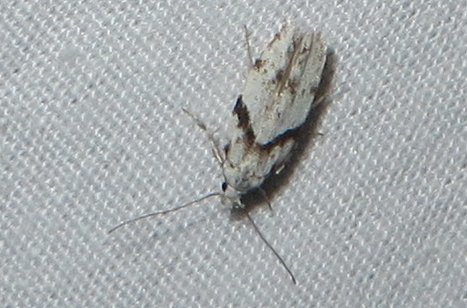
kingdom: Animalia
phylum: Arthropoda
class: Insecta
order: Lepidoptera
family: Gelechiidae
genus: Arogalea
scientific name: Arogalea cristifasciella
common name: White stripe-backed moth
